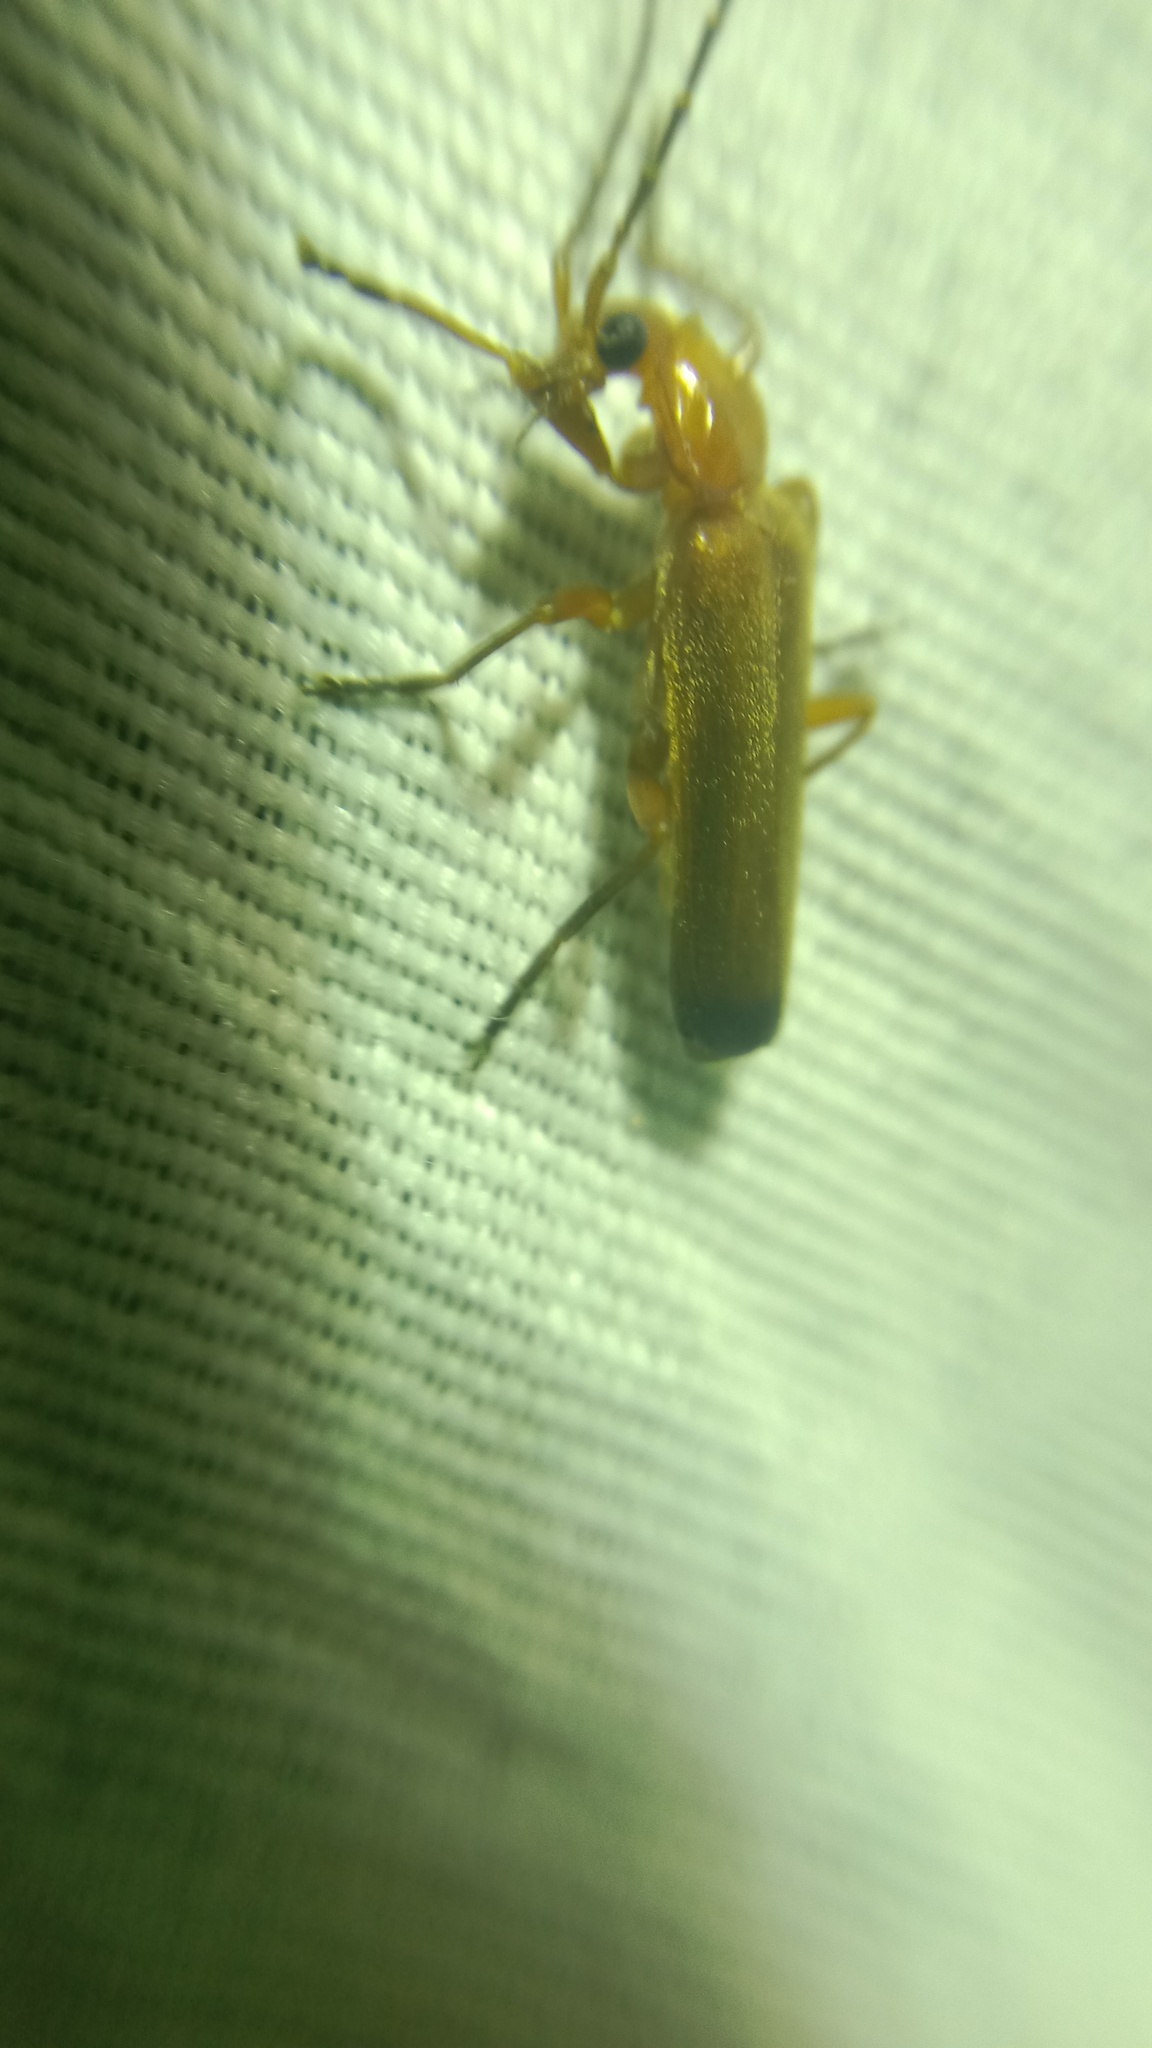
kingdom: Animalia
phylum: Arthropoda
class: Insecta
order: Coleoptera
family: Cantharidae
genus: Rhagonycha
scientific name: Rhagonycha fulva
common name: Common red soldier beetle
